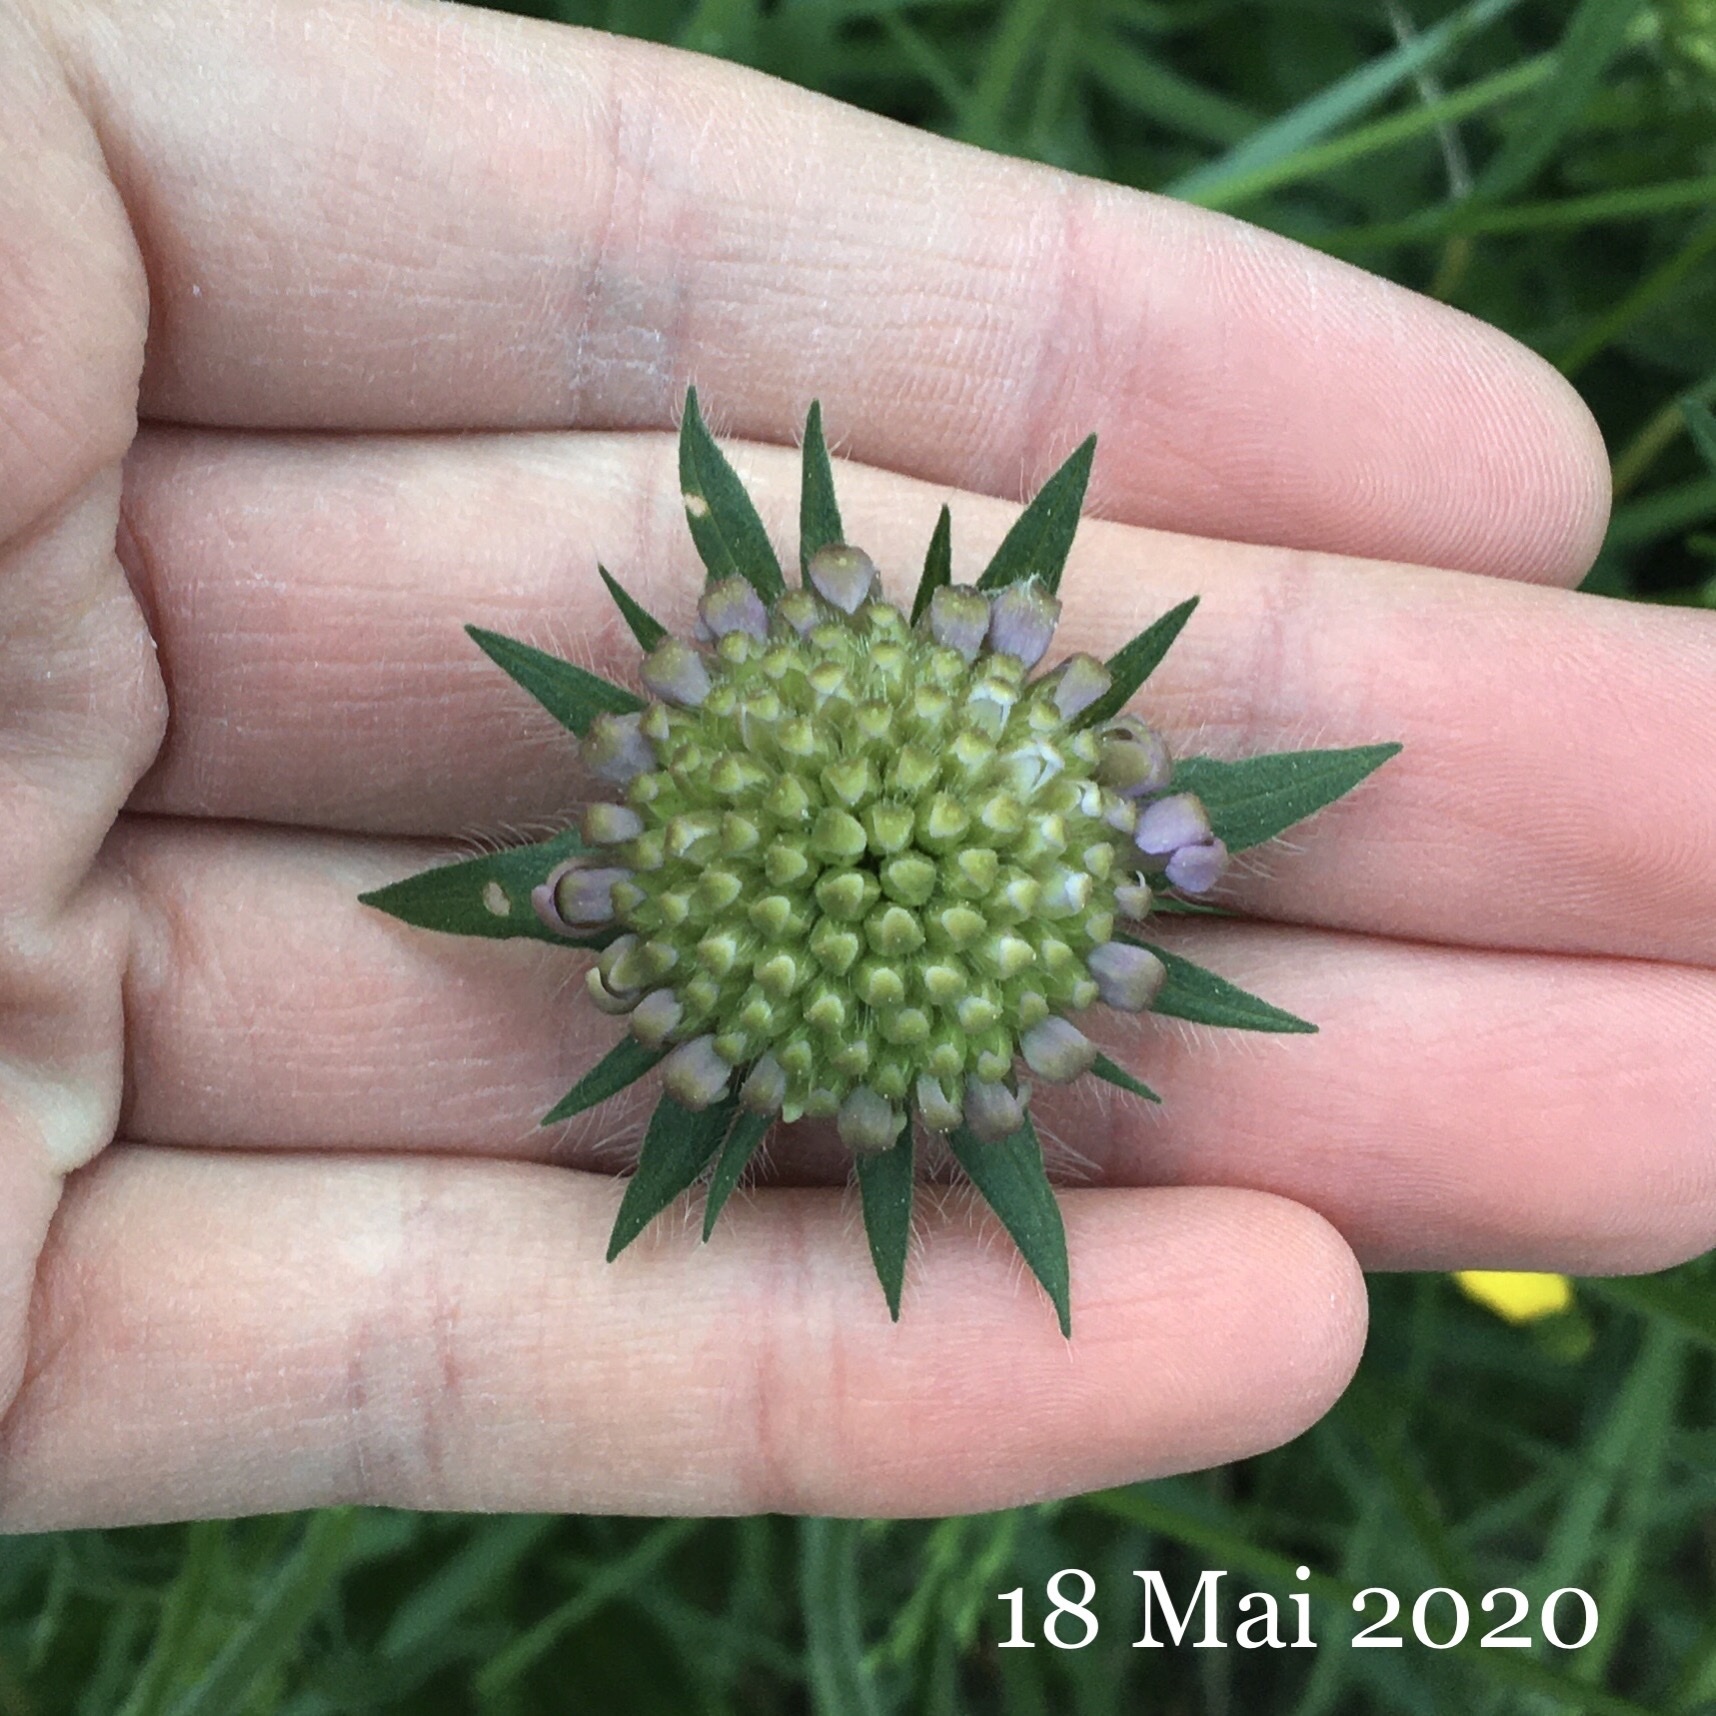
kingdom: Plantae
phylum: Tracheophyta
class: Magnoliopsida
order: Dipsacales
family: Caprifoliaceae
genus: Knautia
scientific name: Knautia arvensis
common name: Field scabiosa
